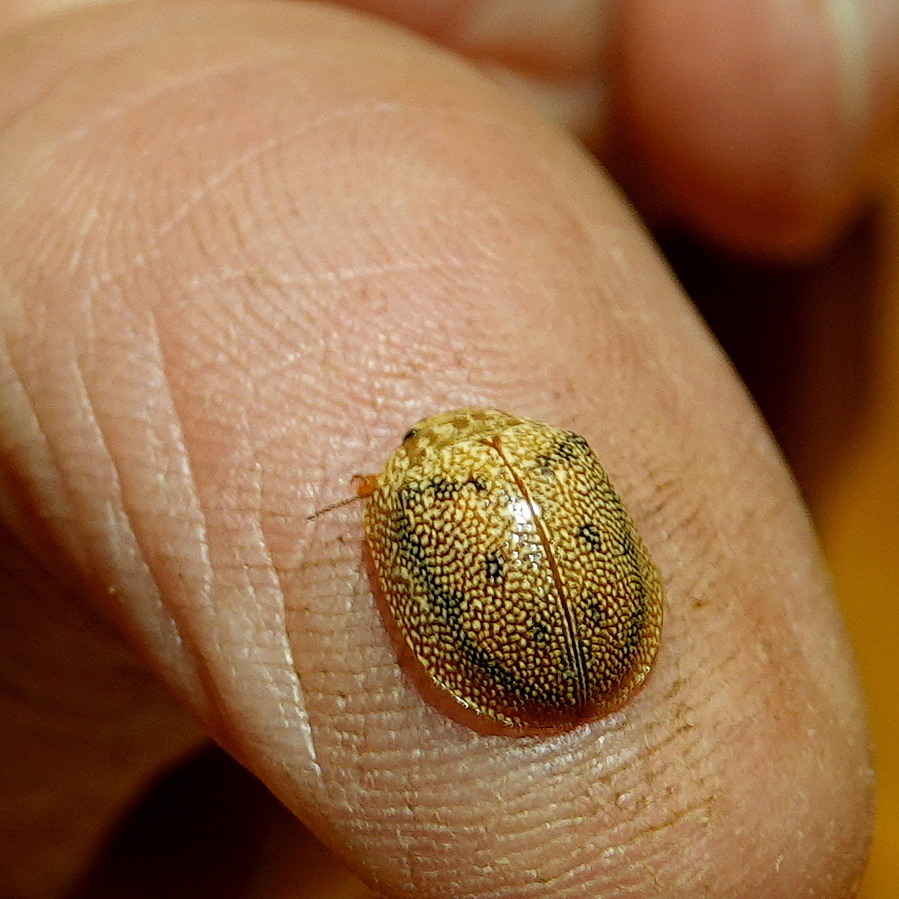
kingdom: Animalia
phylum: Arthropoda
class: Insecta
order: Coleoptera
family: Chrysomelidae
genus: Paropsis
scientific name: Paropsis
